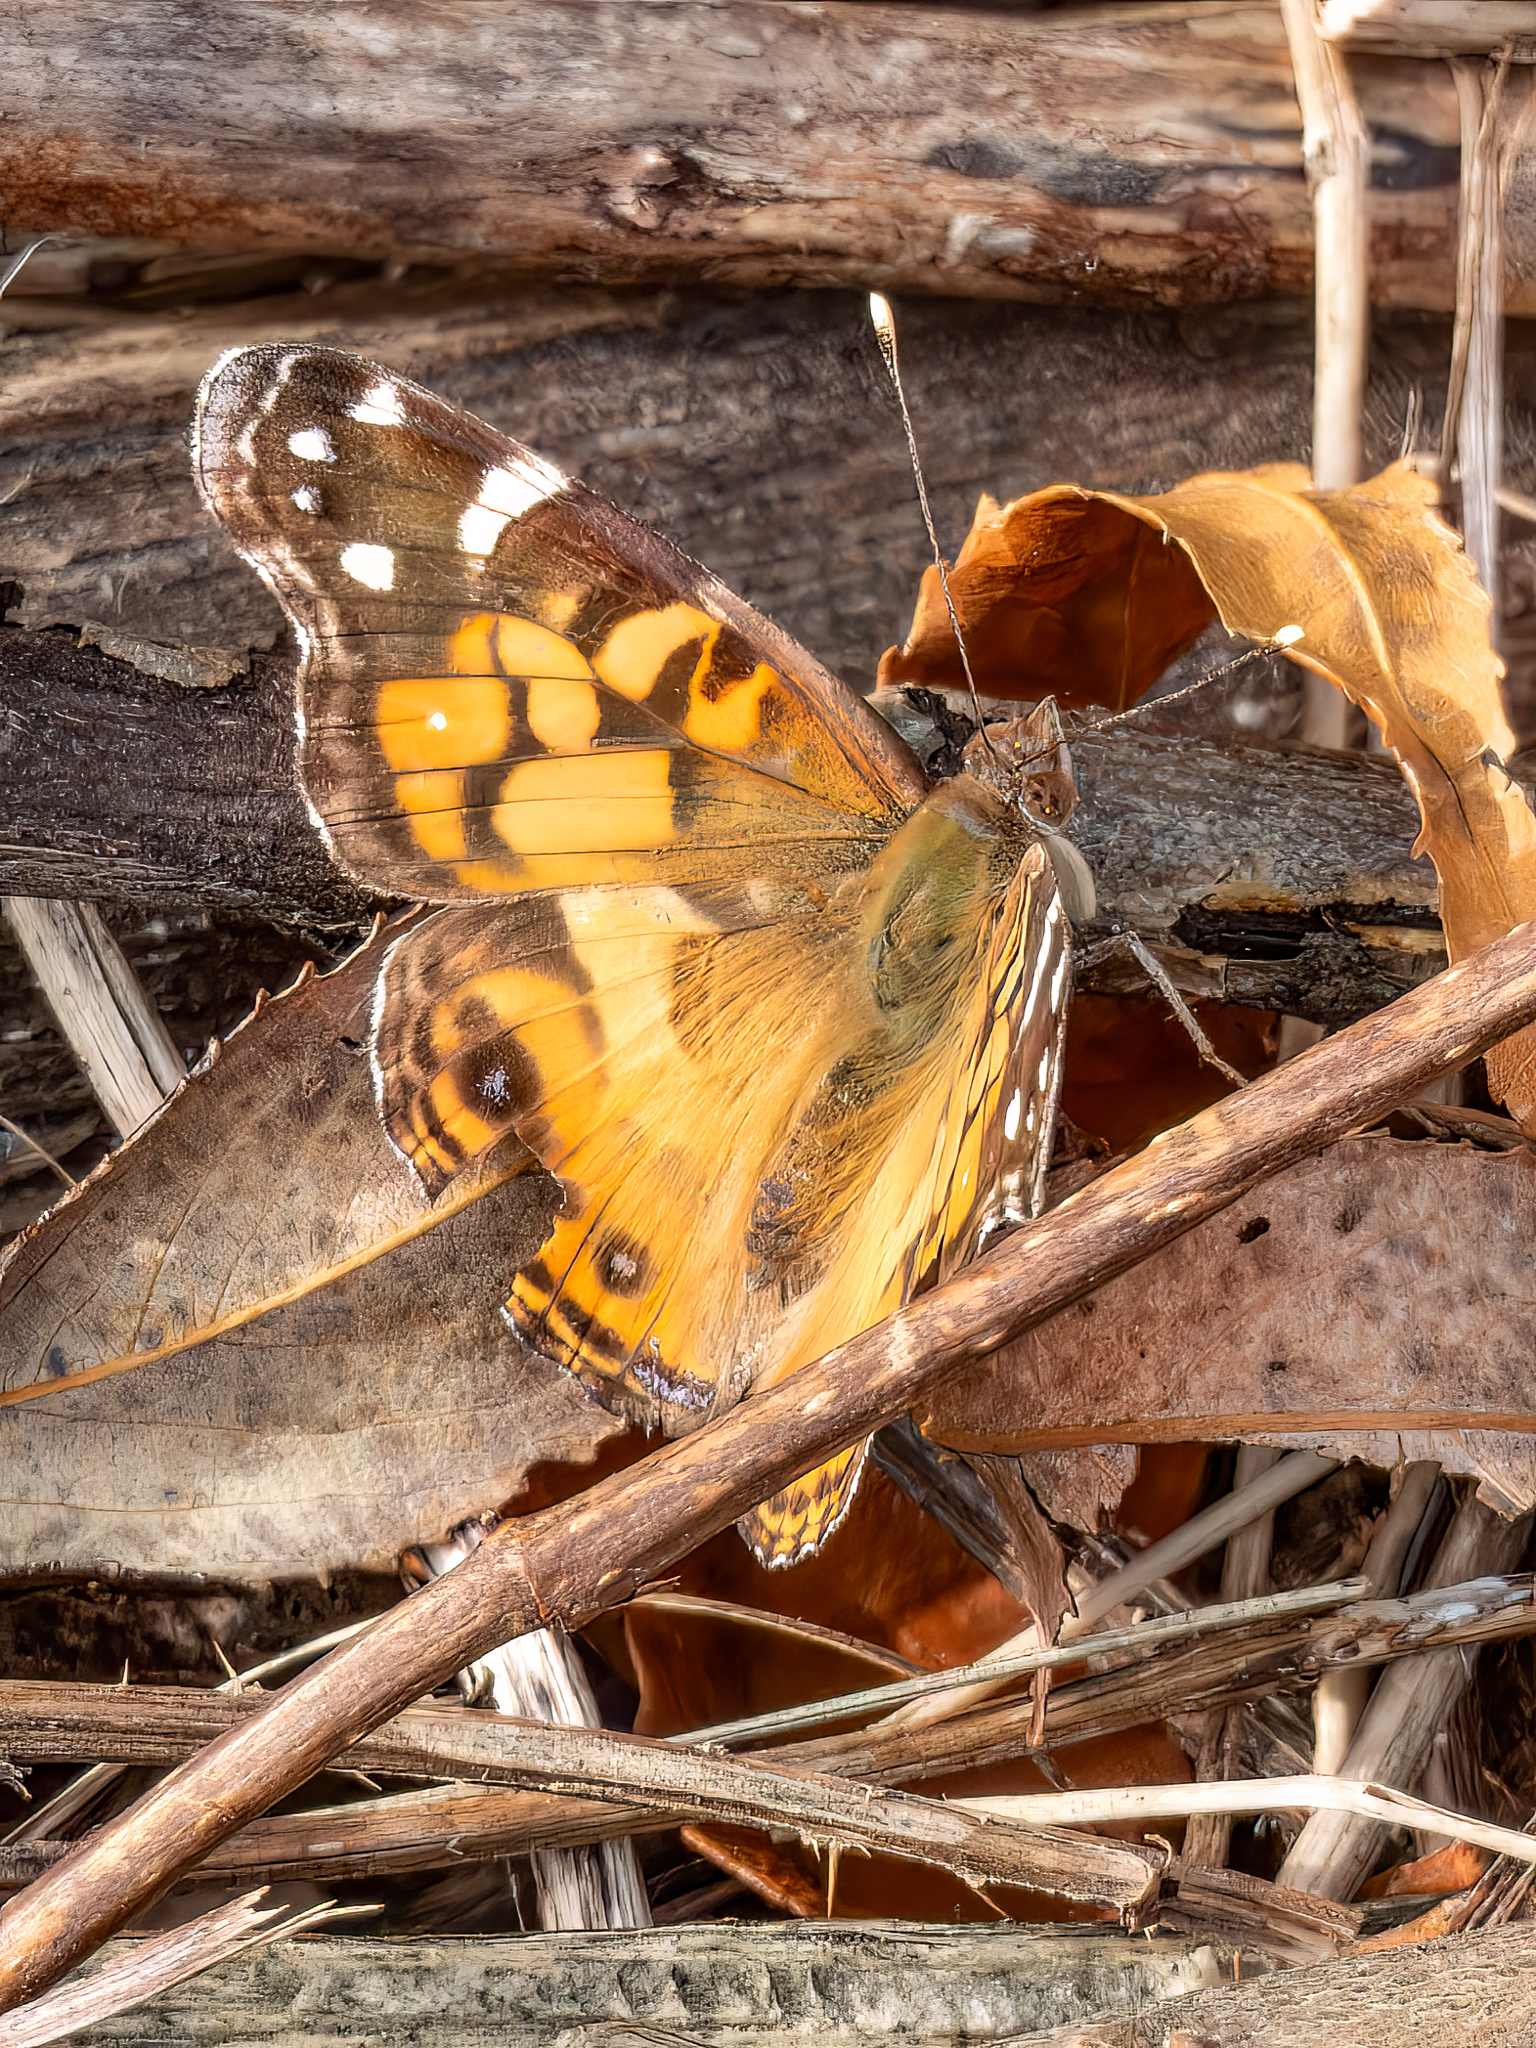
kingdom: Animalia
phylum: Arthropoda
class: Insecta
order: Lepidoptera
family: Nymphalidae
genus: Vanessa
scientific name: Vanessa virginiensis
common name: American lady
